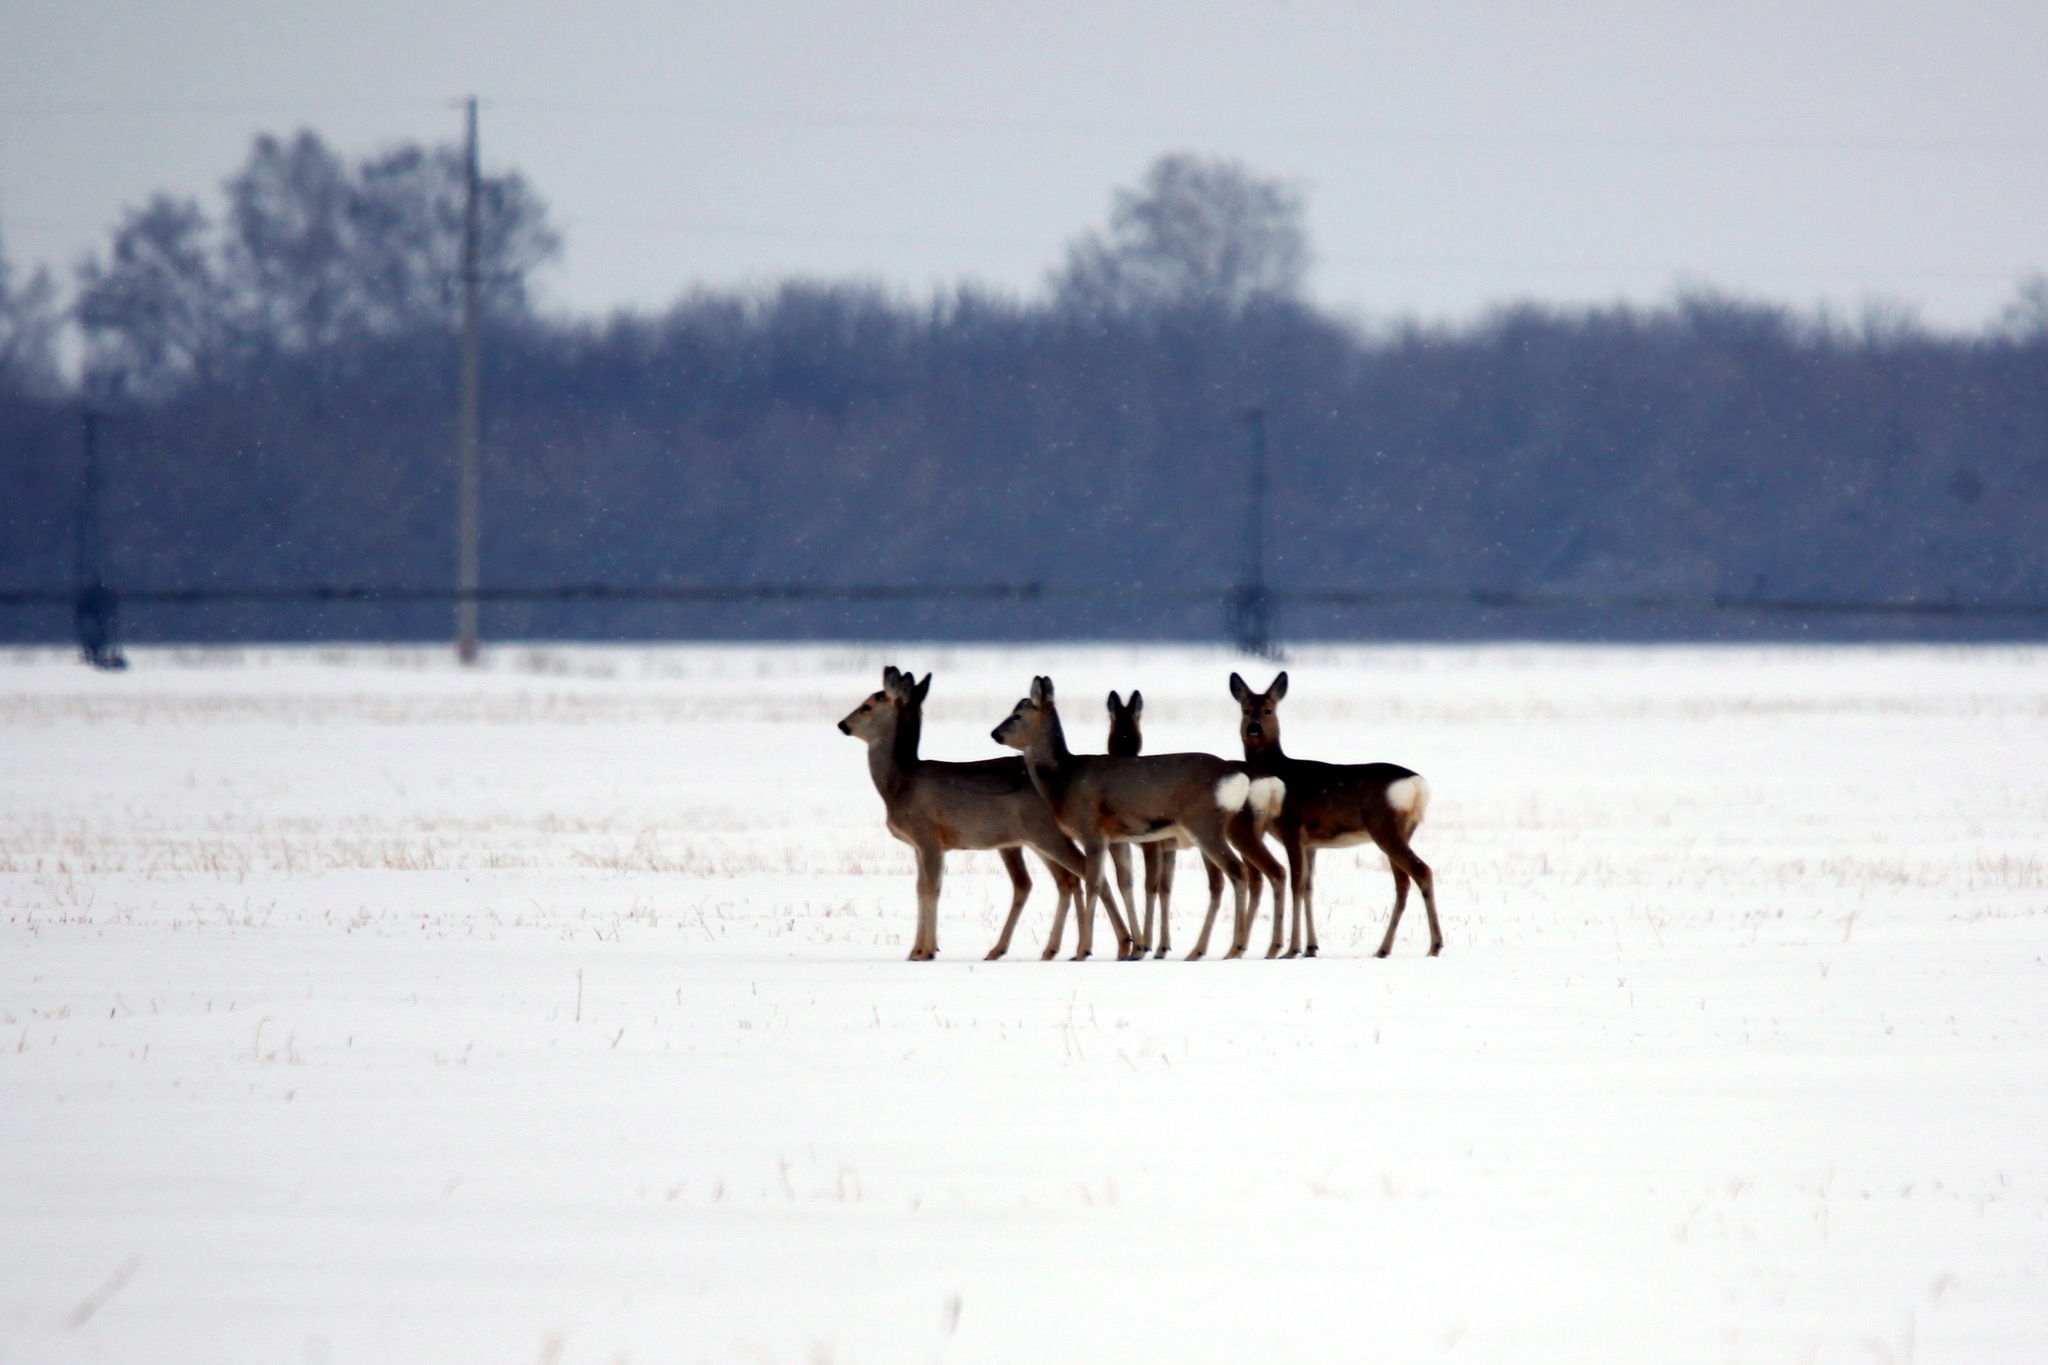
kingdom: Animalia
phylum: Chordata
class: Mammalia
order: Artiodactyla
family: Cervidae
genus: Capreolus
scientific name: Capreolus pygargus
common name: Siberian roe
